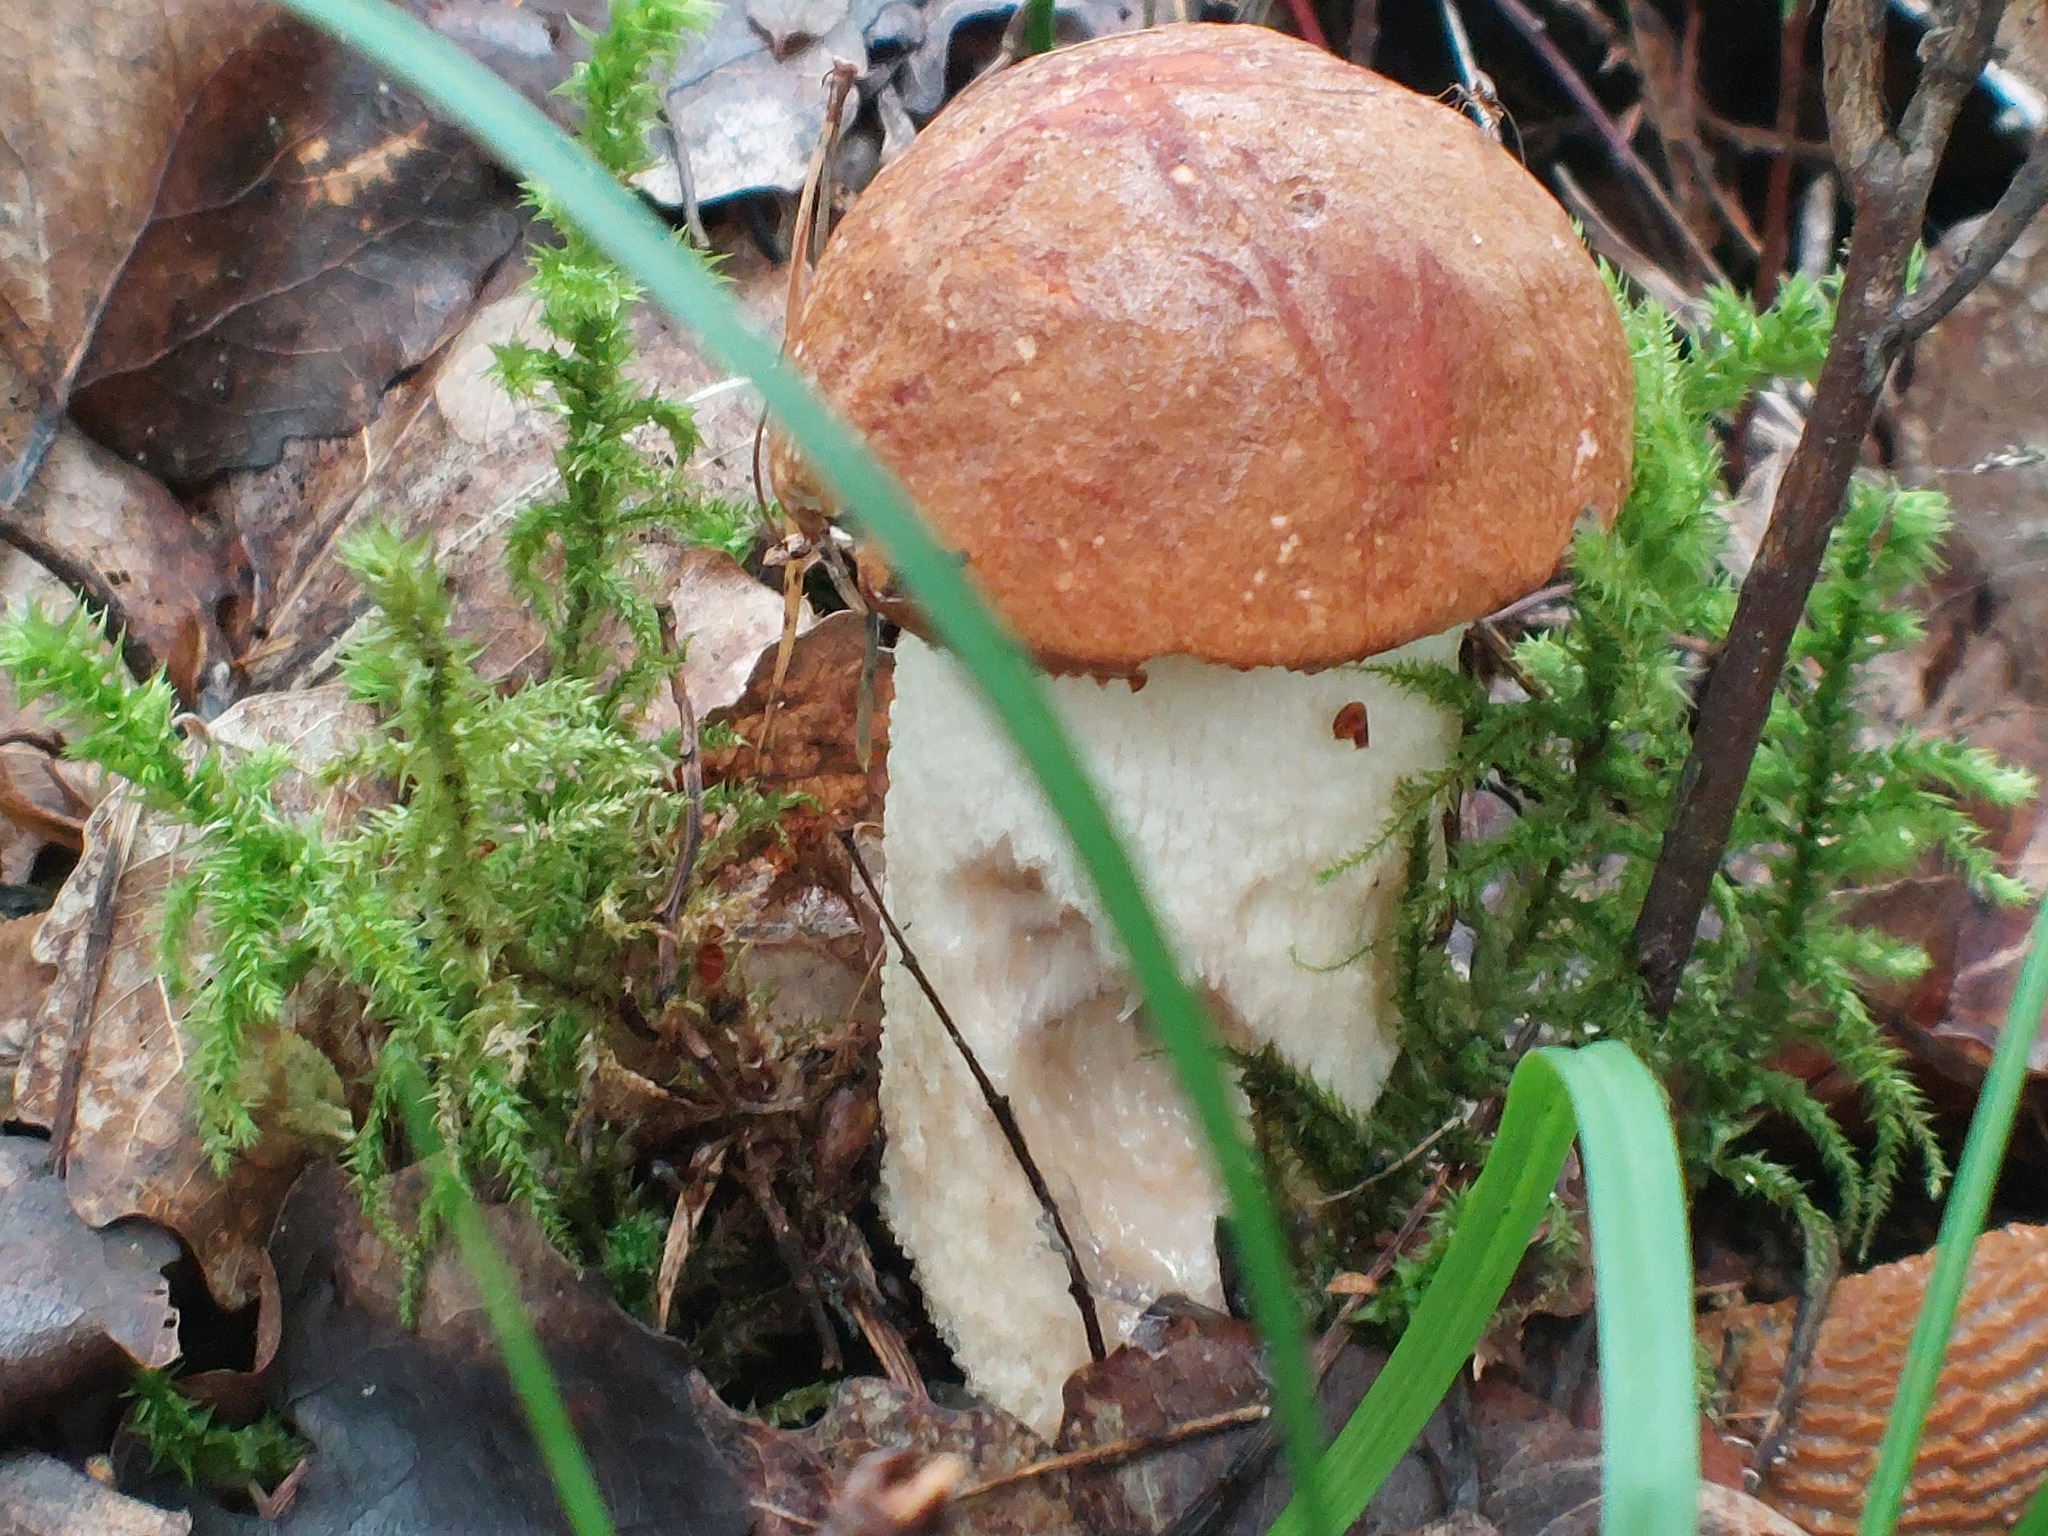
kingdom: Fungi
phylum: Basidiomycota
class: Agaricomycetes
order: Boletales
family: Boletaceae
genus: Leccinum
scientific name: Leccinum albostipitatum
